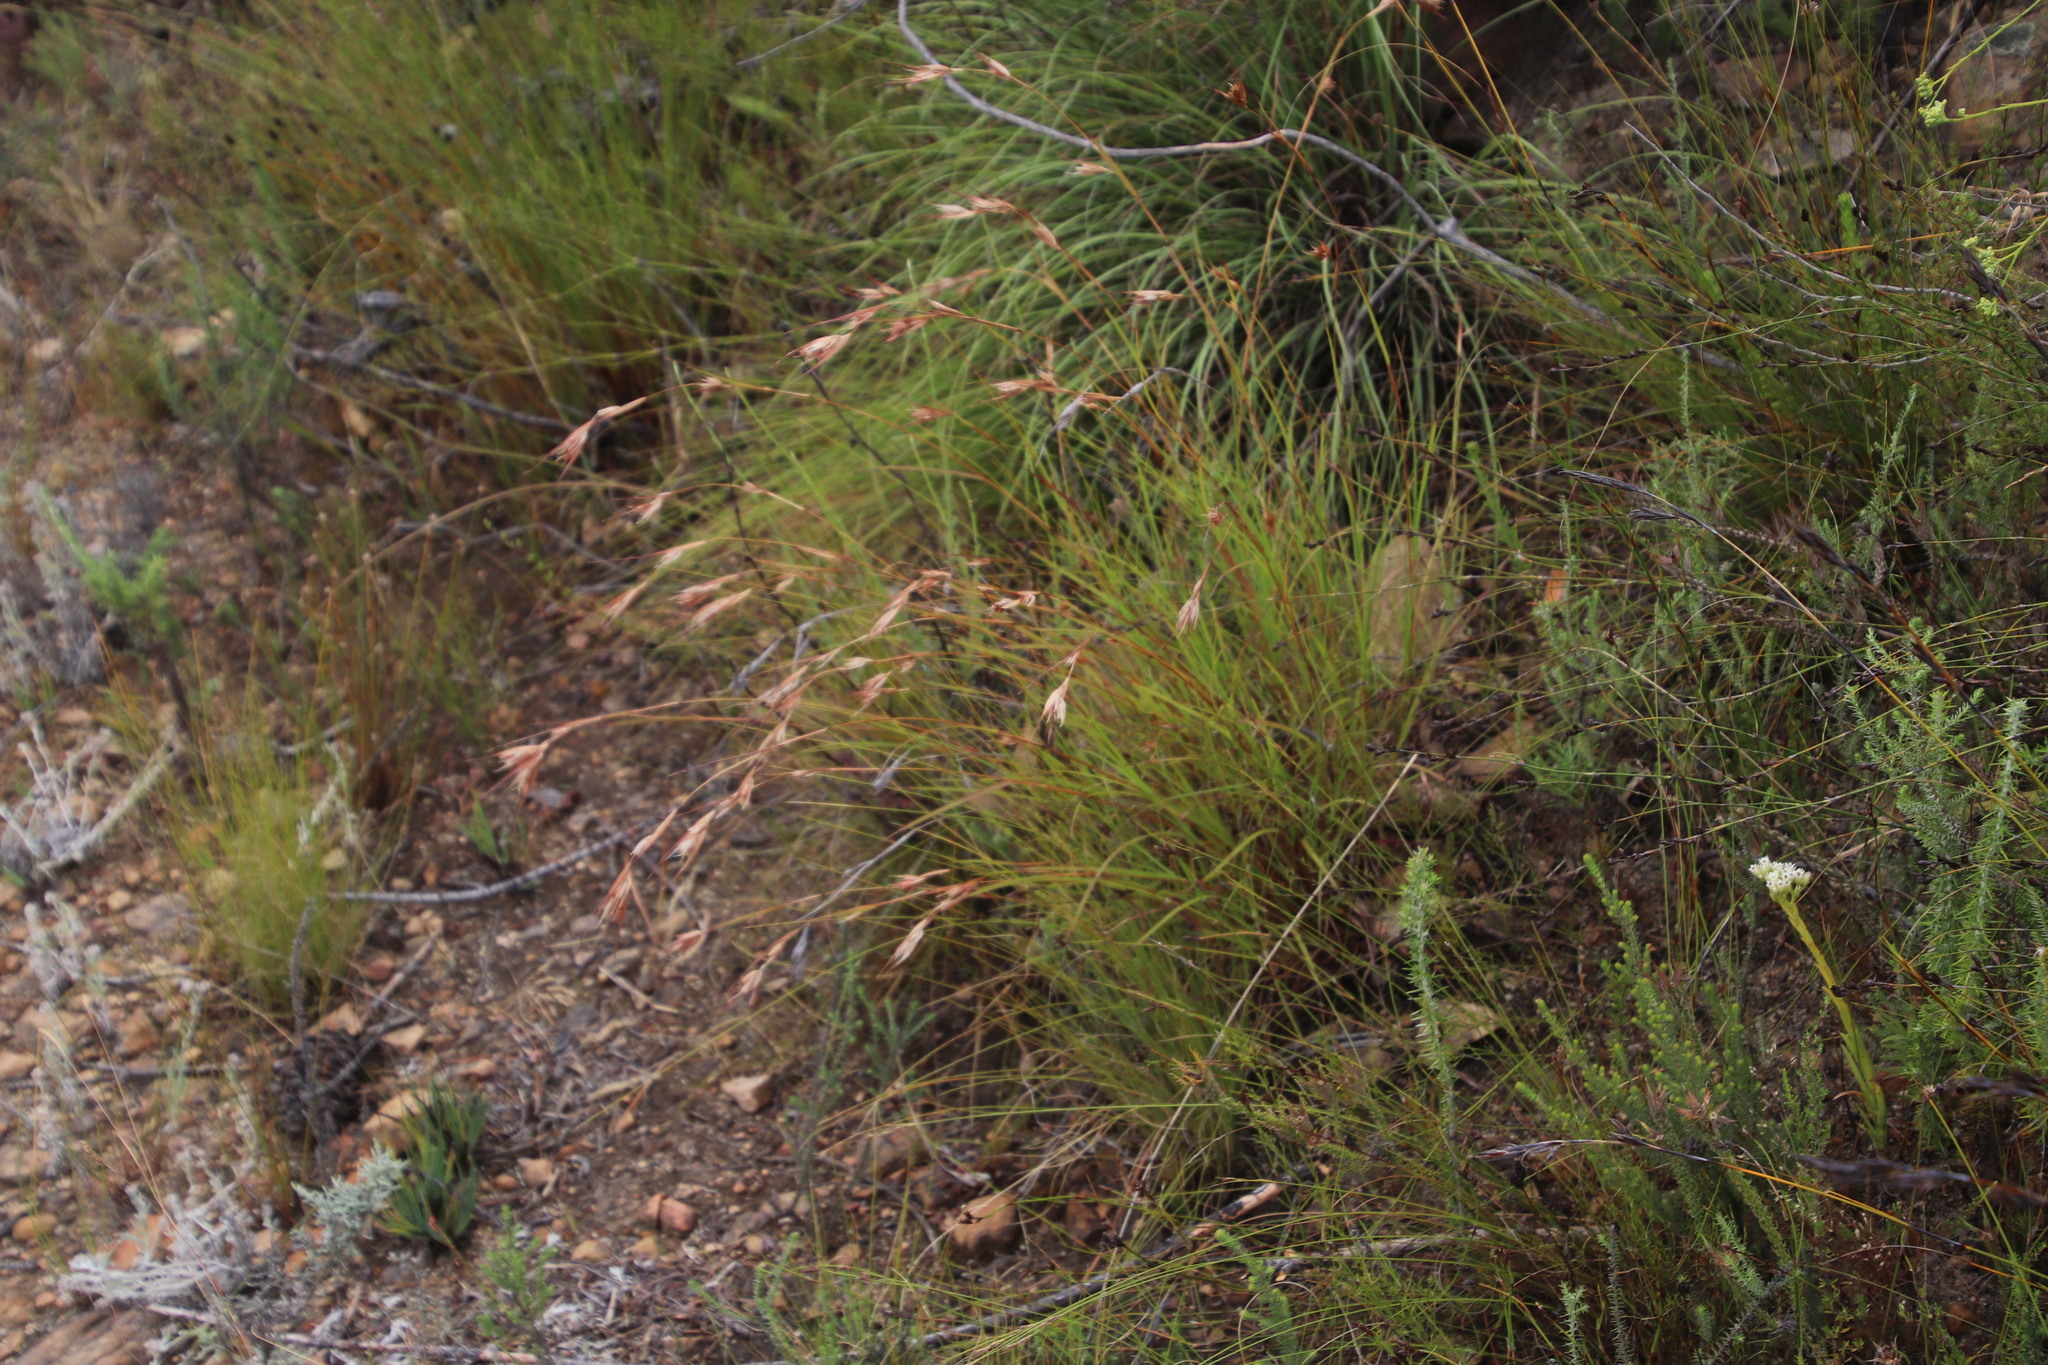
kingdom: Plantae
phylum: Tracheophyta
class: Liliopsida
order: Poales
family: Poaceae
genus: Themeda
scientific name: Themeda triandra
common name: Kangaroo grass
